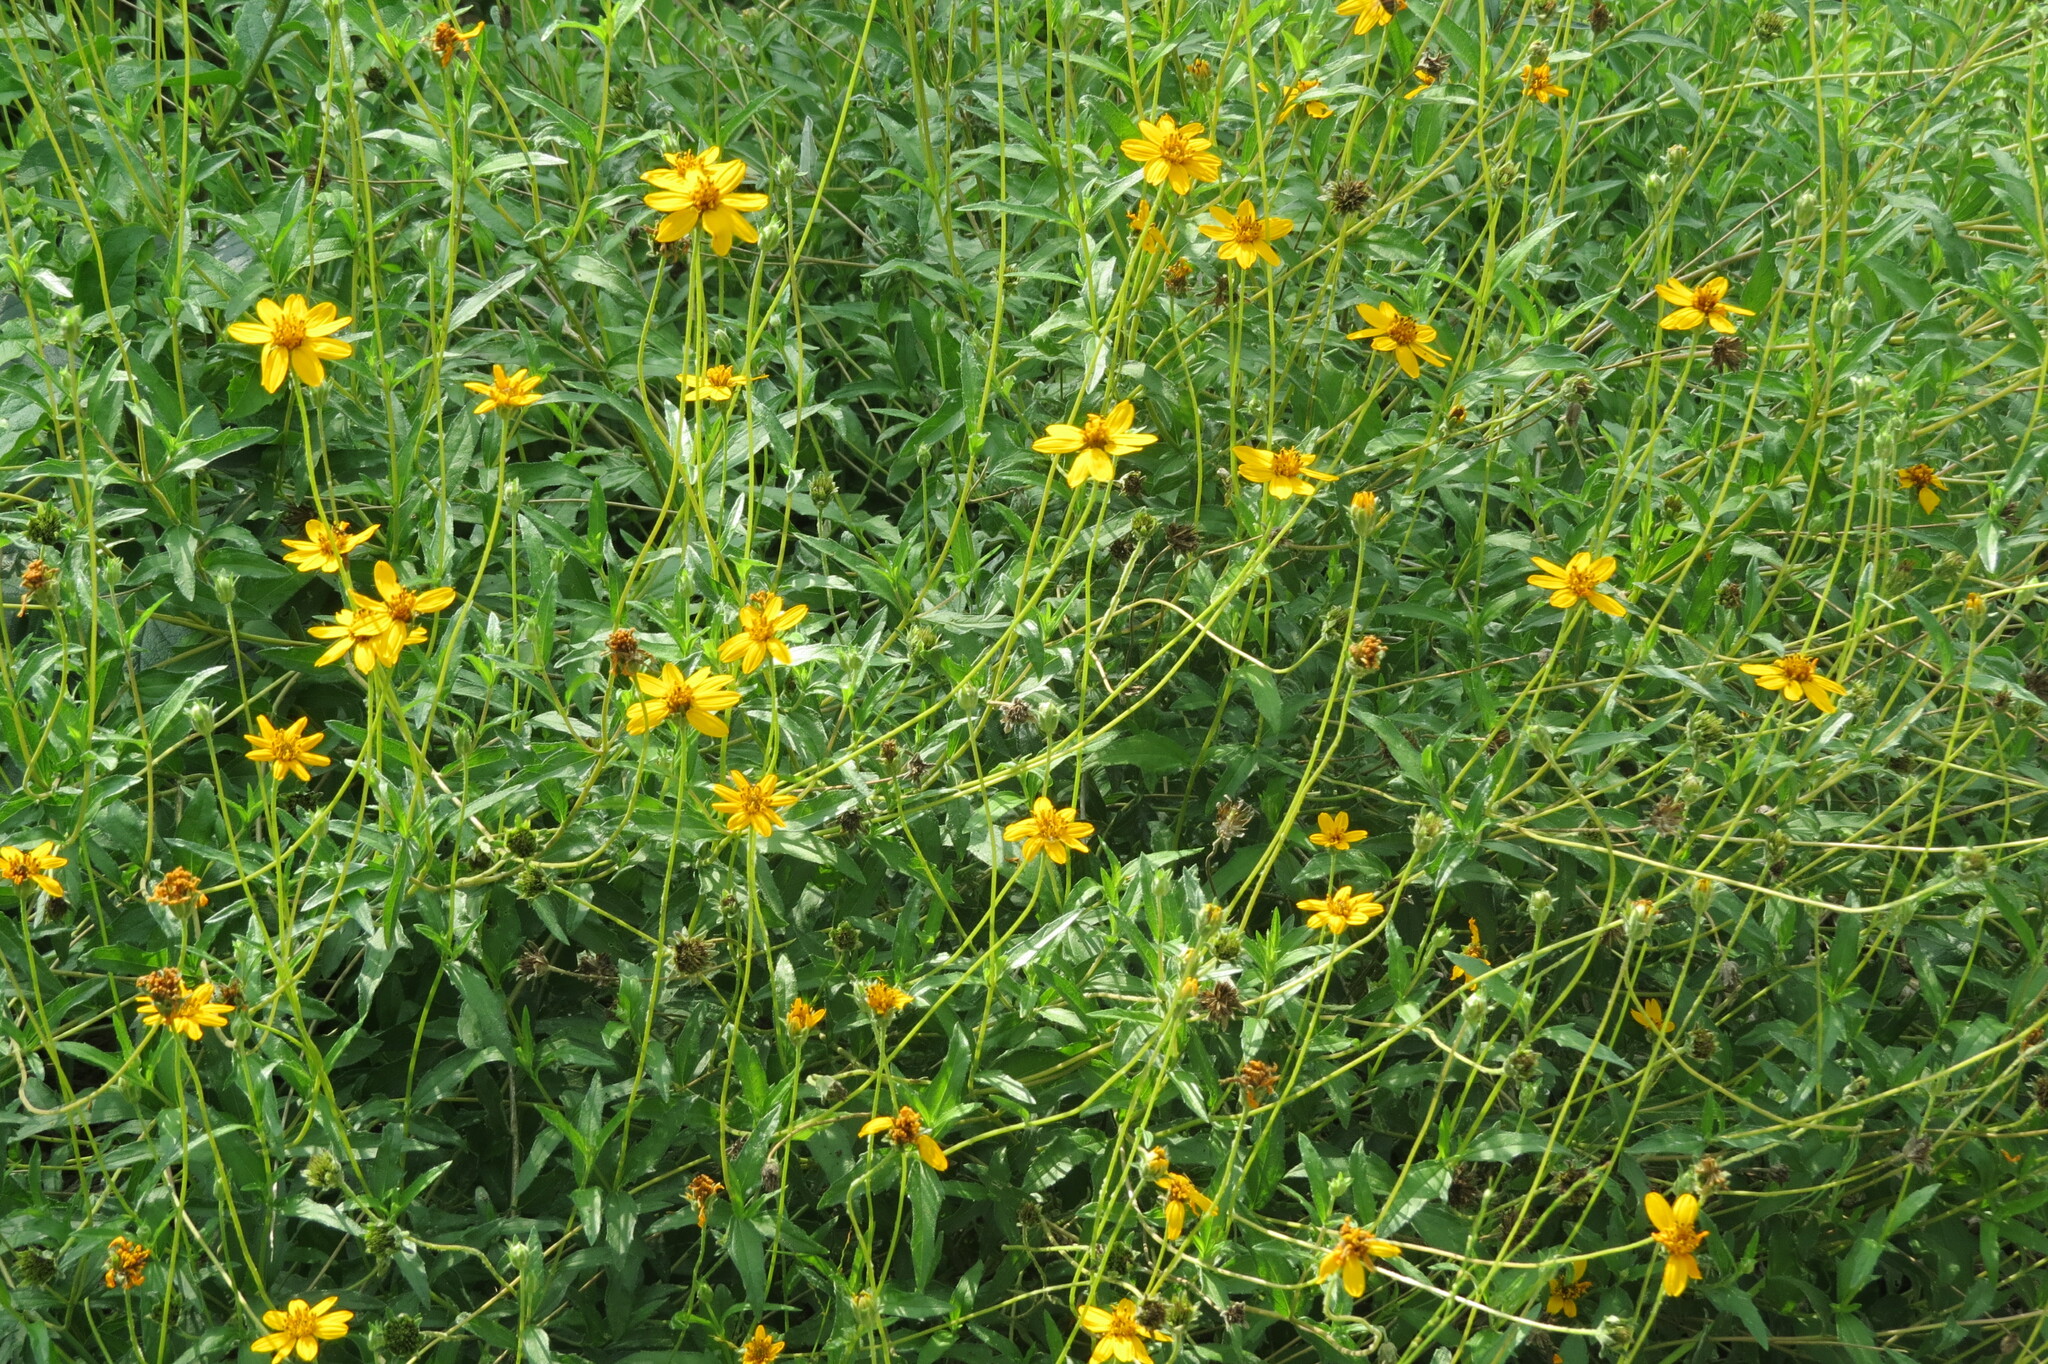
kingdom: Plantae
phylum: Tracheophyta
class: Magnoliopsida
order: Asterales
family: Asteraceae
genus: Wedelia
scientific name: Wedelia acapulcensis
